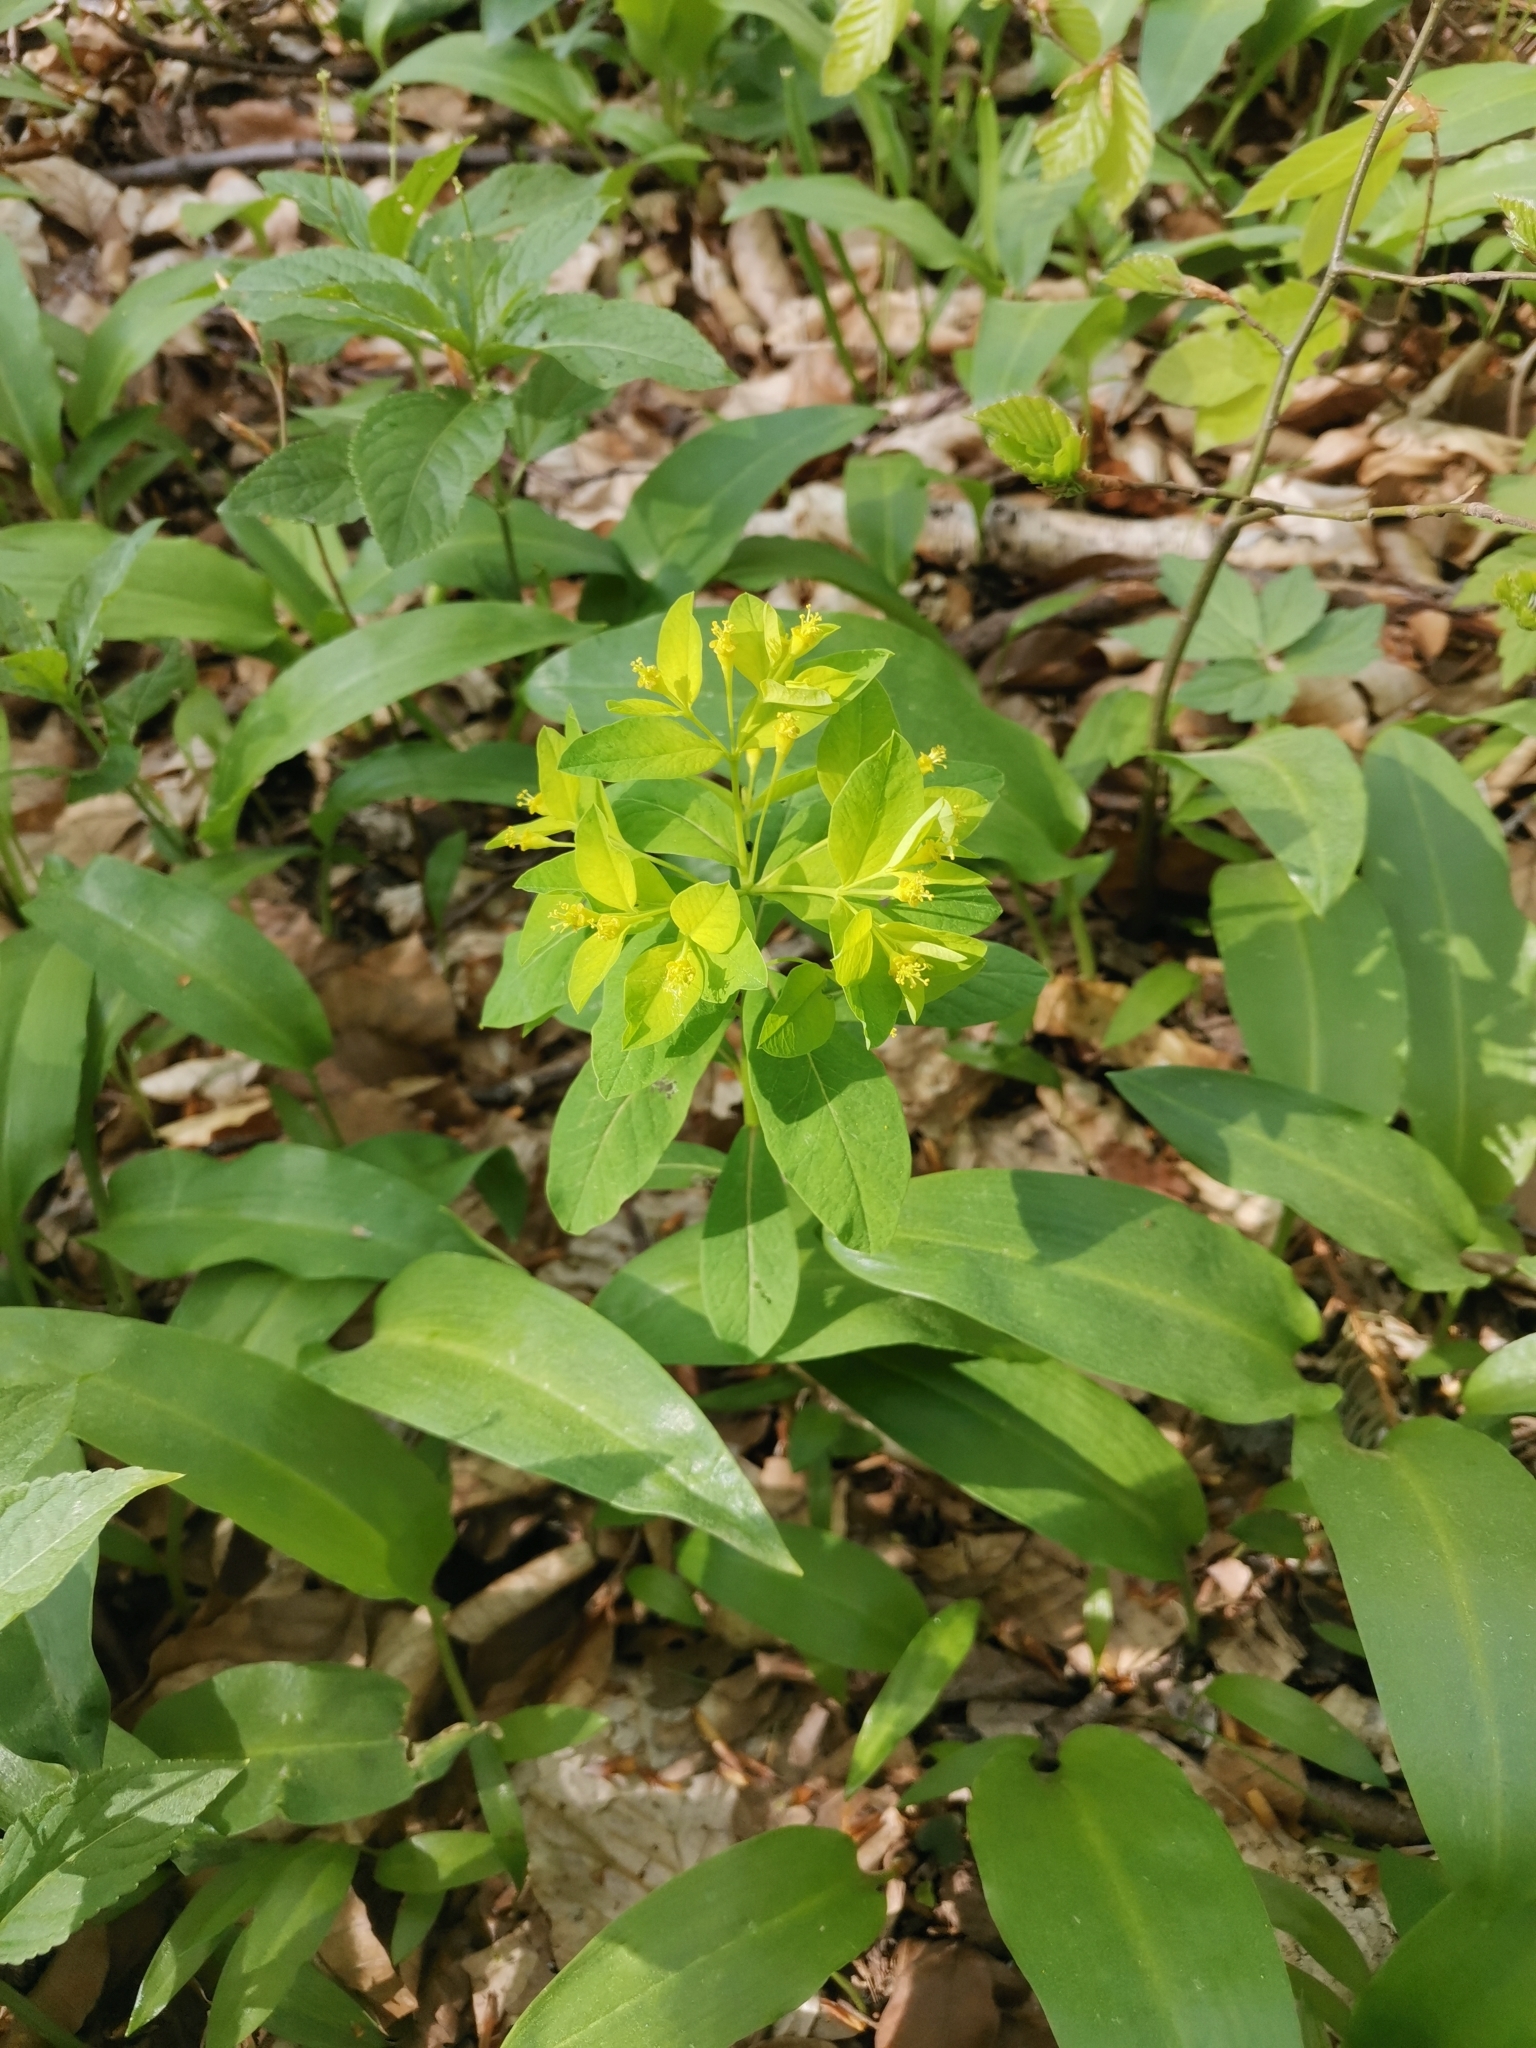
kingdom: Plantae
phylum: Tracheophyta
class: Magnoliopsida
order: Malpighiales
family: Euphorbiaceae
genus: Euphorbia
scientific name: Euphorbia carniolica
